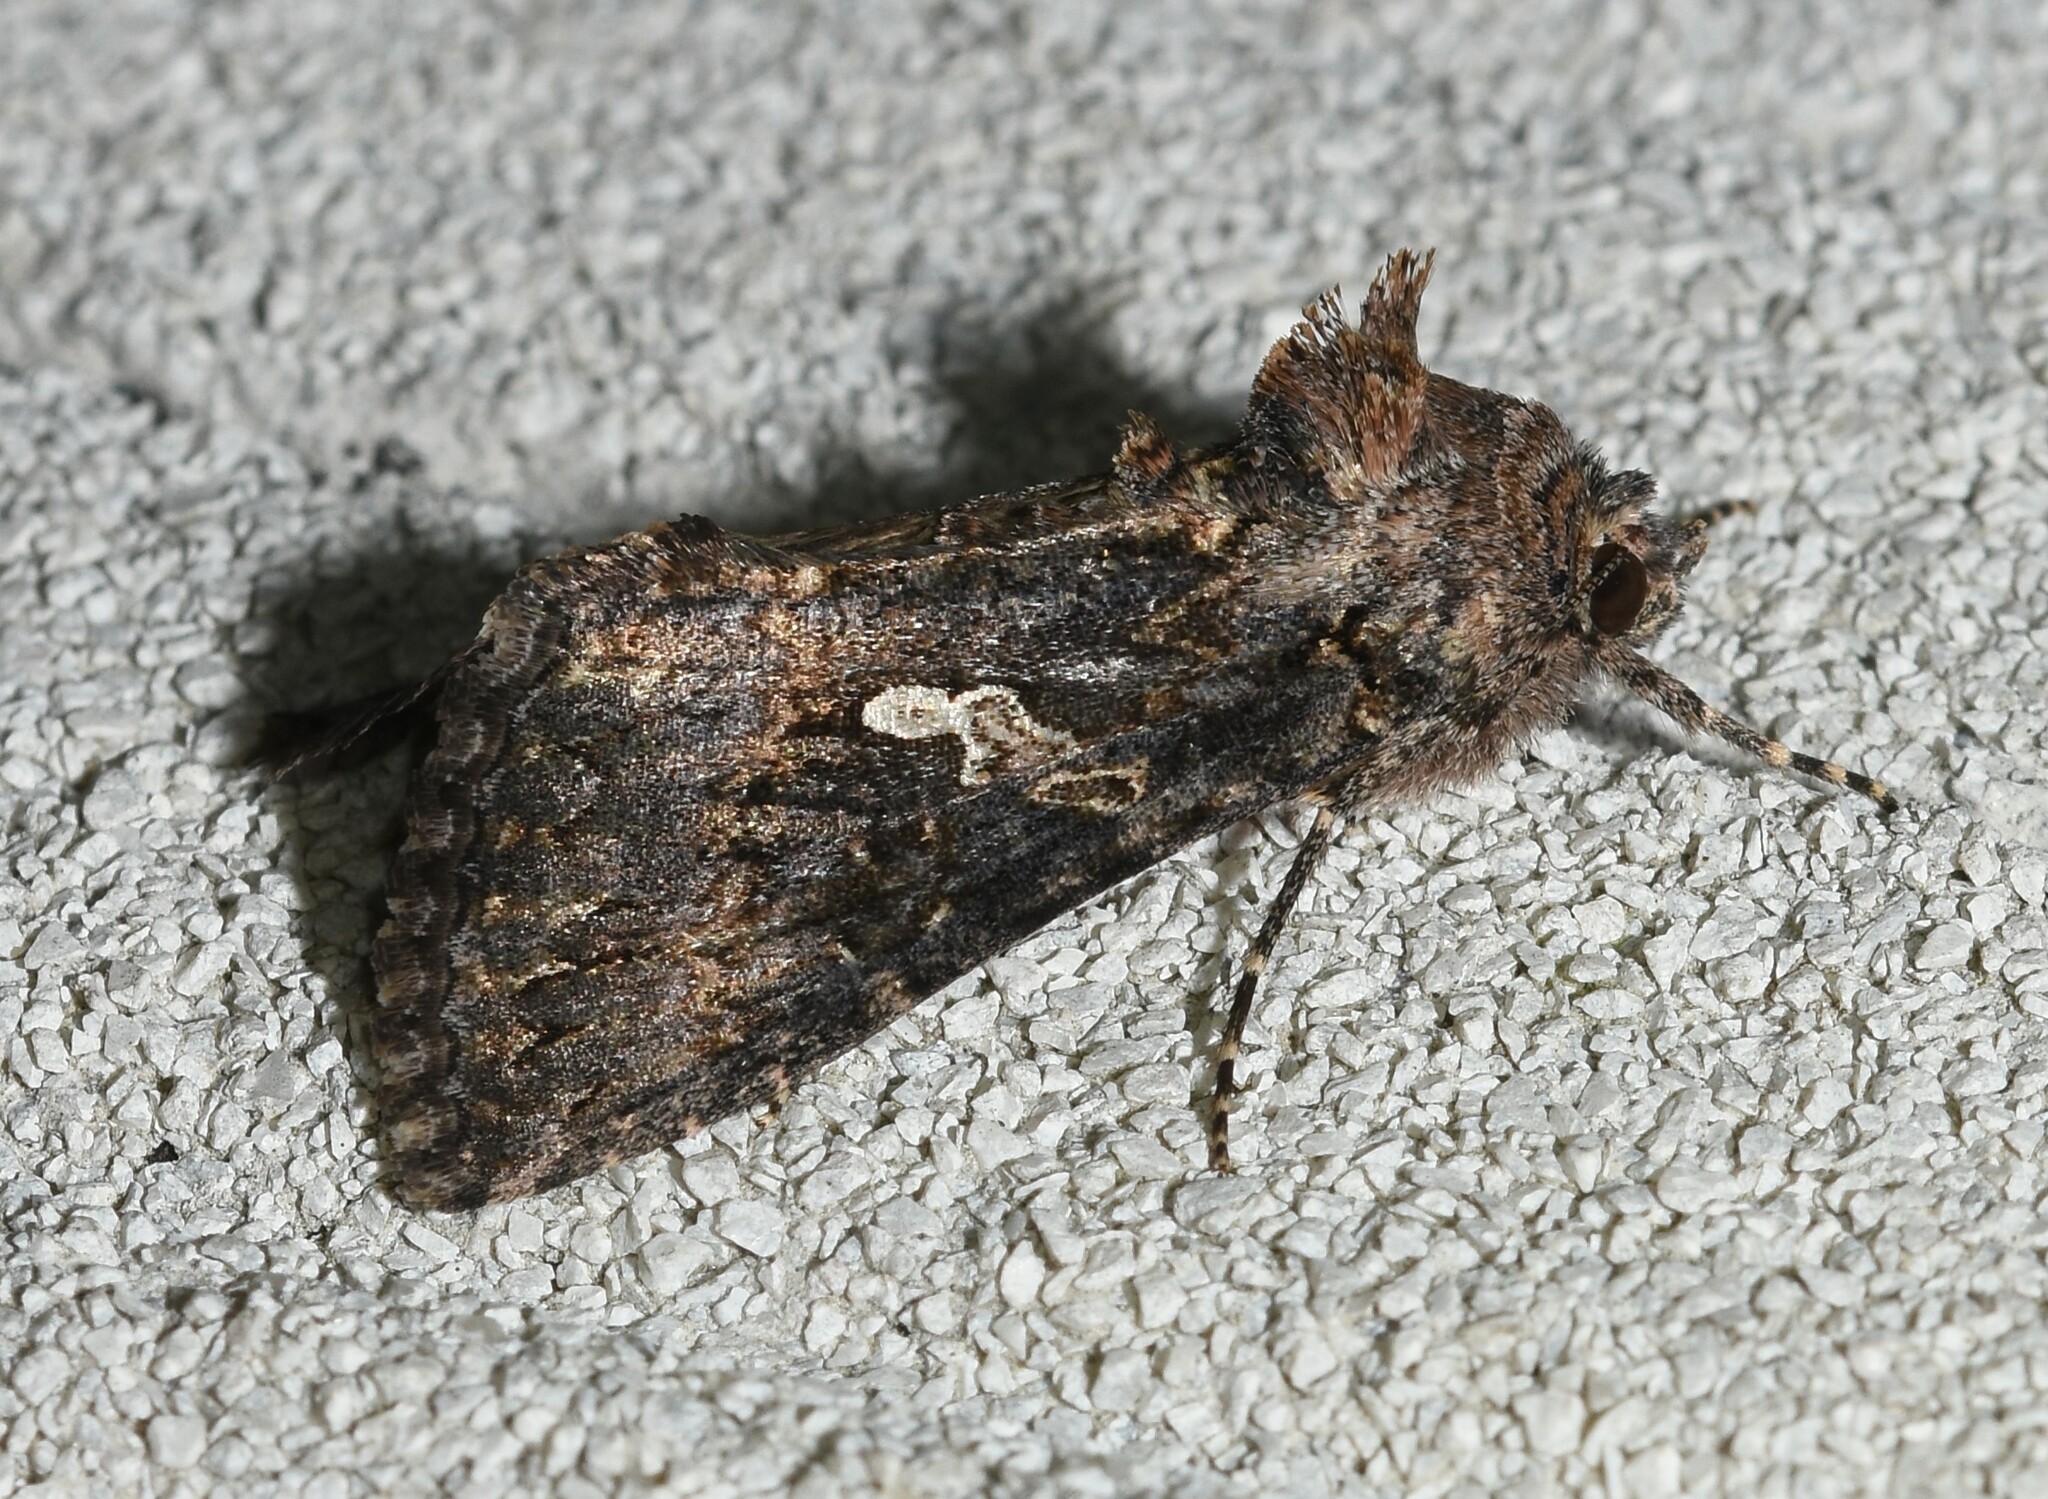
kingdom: Animalia
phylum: Arthropoda
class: Insecta
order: Lepidoptera
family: Noctuidae
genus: Trichoplusia
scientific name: Trichoplusia ni
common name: Ni moth
